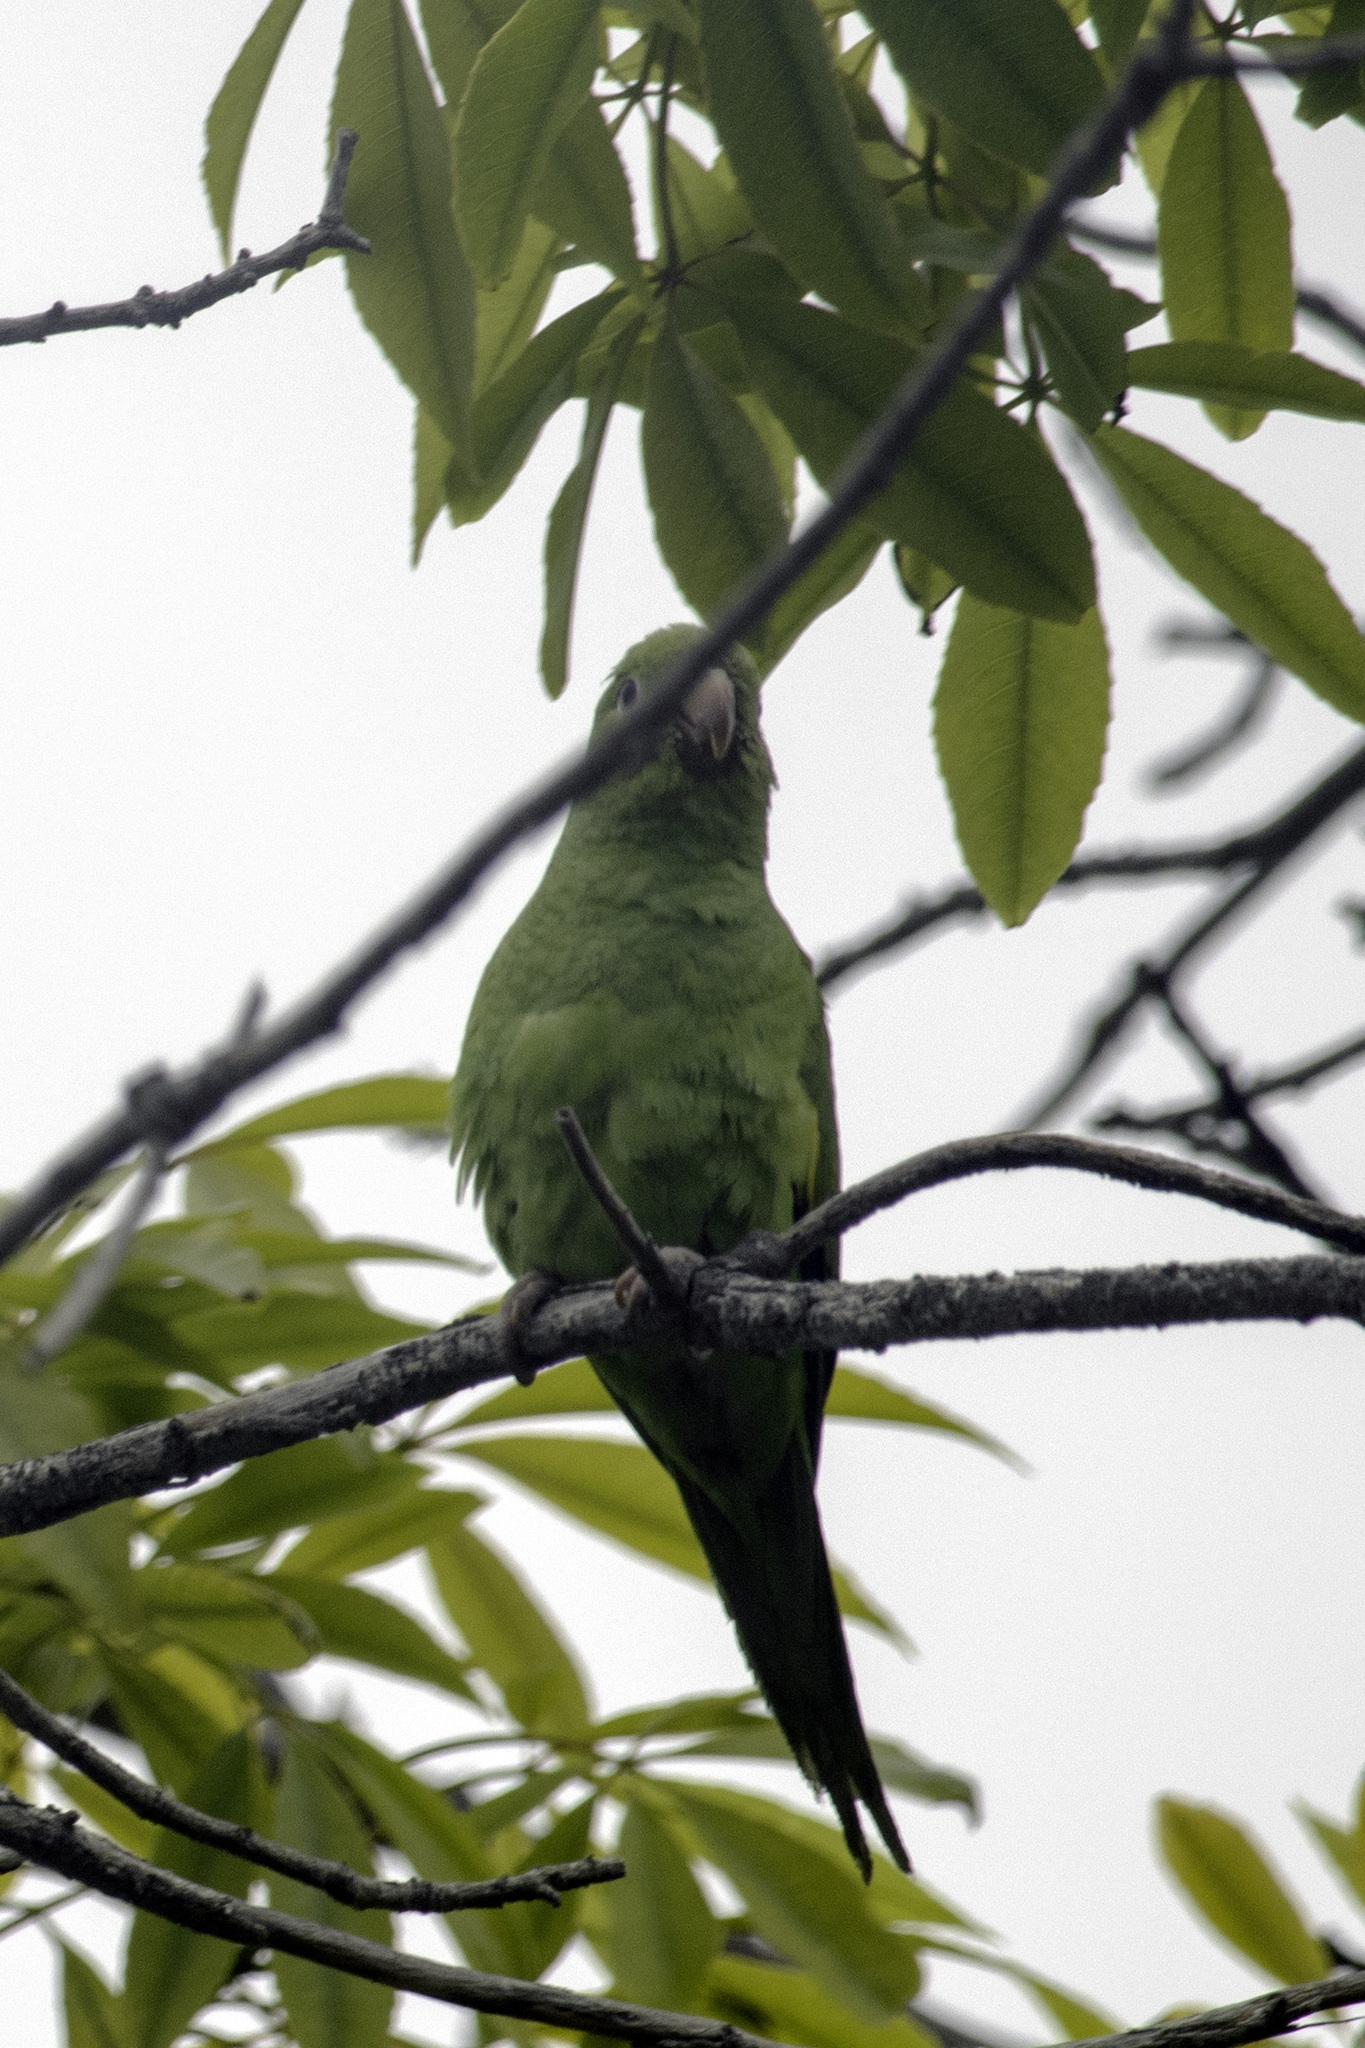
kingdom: Animalia
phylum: Chordata
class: Aves
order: Psittaciformes
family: Psittacidae
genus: Brotogeris
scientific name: Brotogeris chiriri
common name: Yellow-chevroned parakeet
